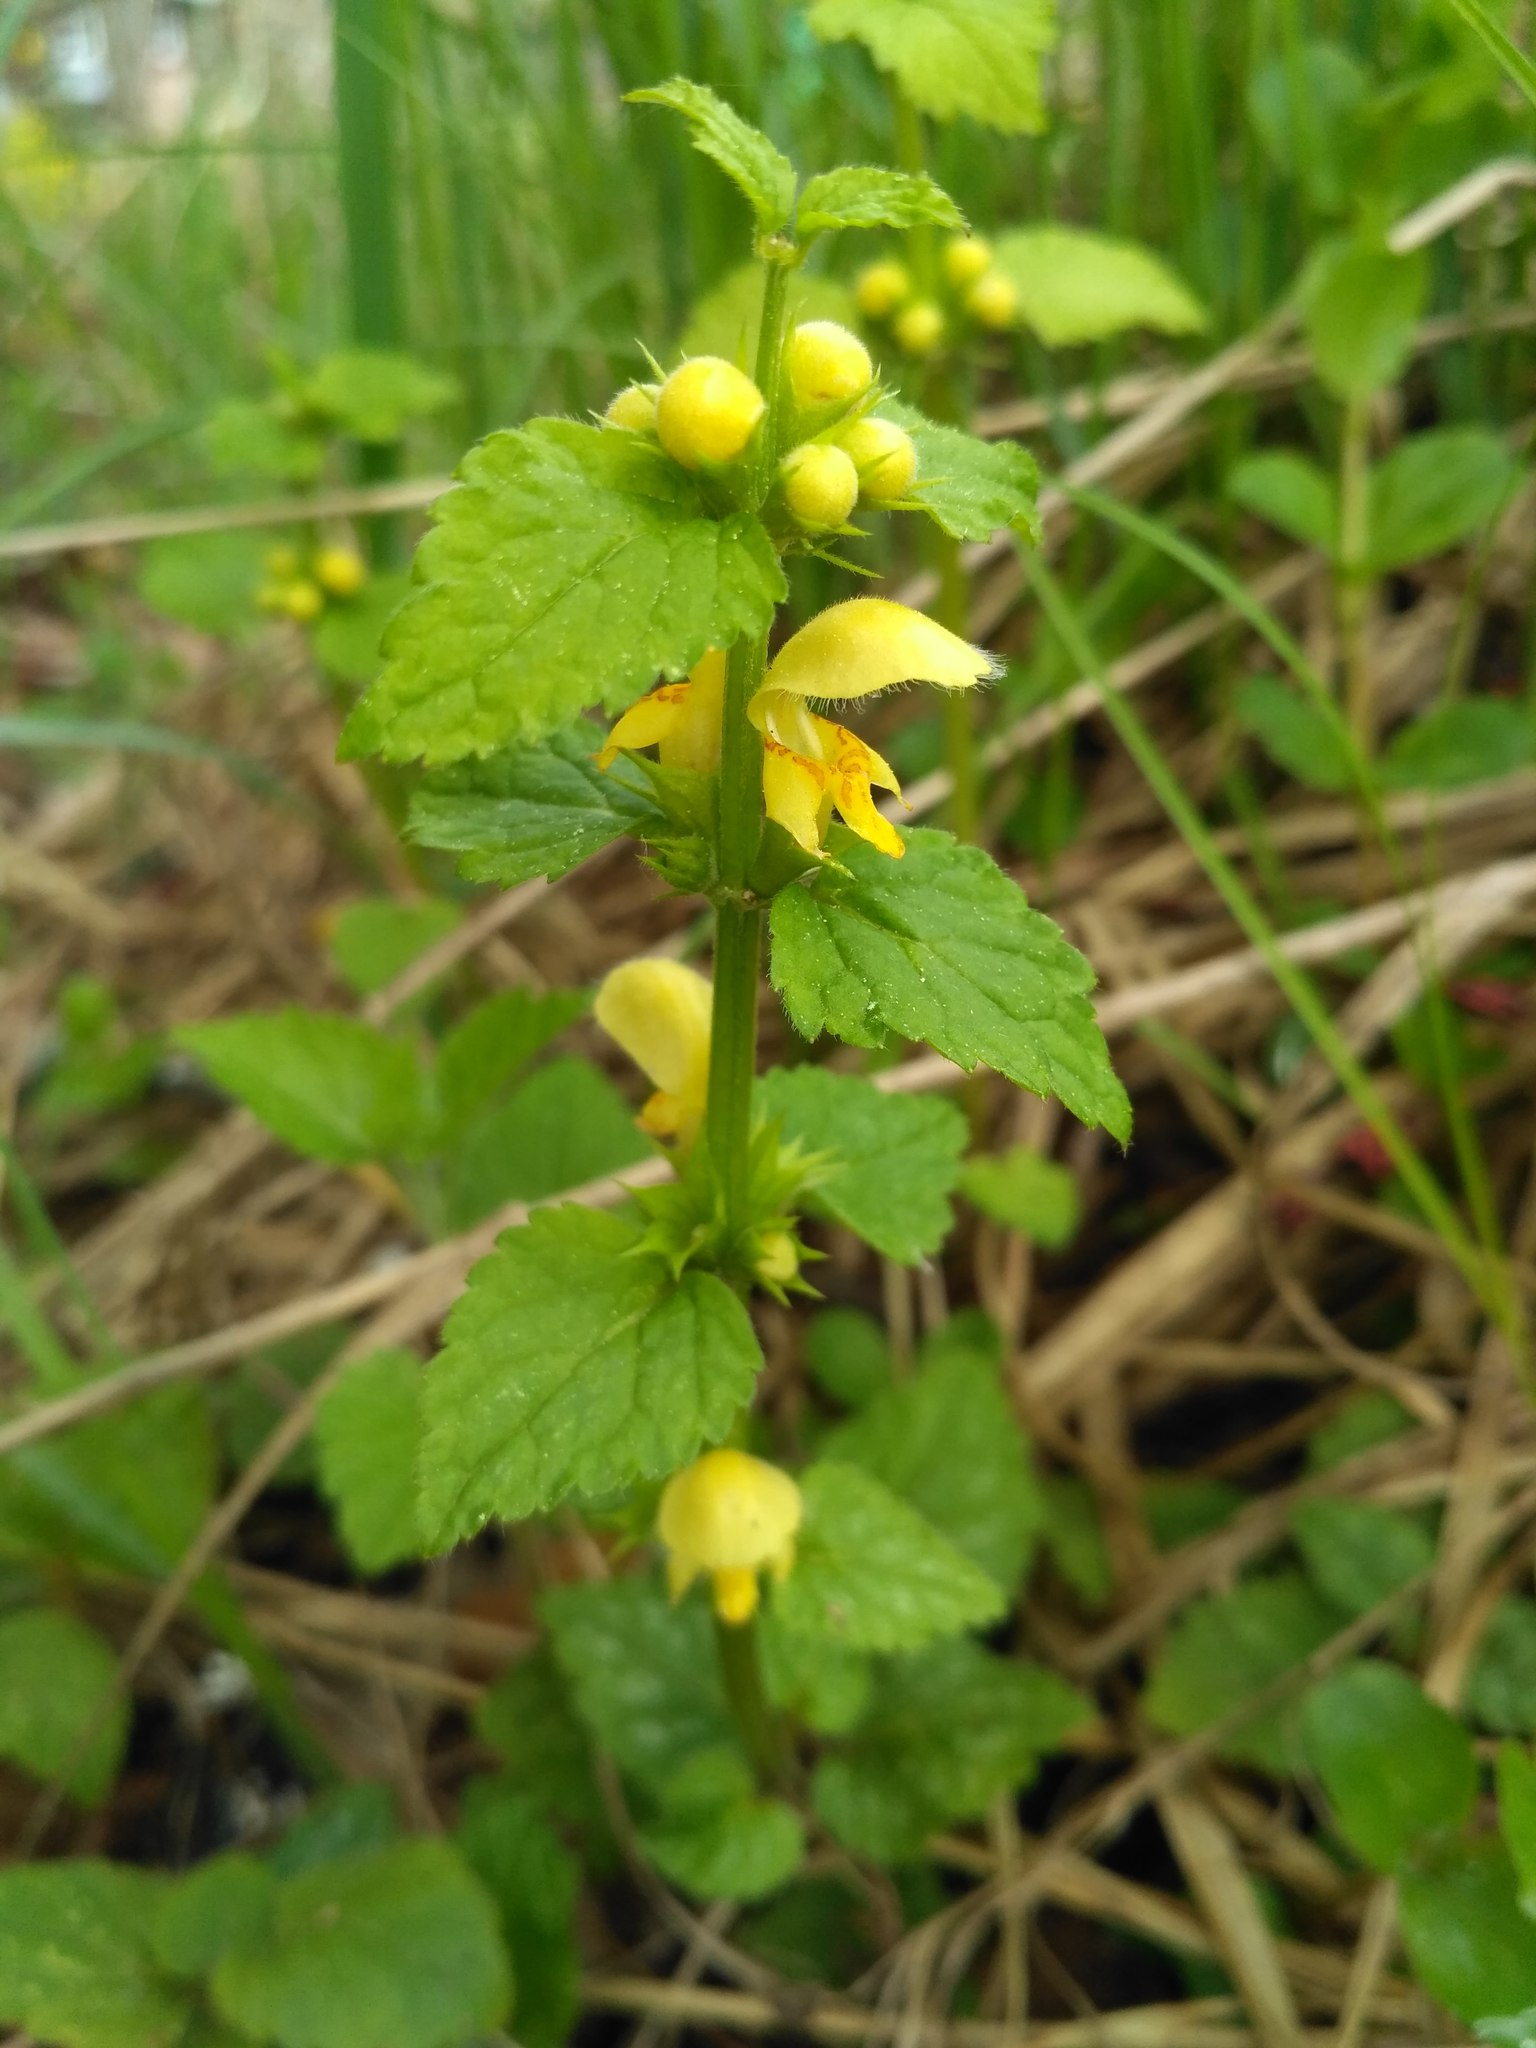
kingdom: Plantae
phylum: Tracheophyta
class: Magnoliopsida
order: Lamiales
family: Lamiaceae
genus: Lamium
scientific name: Lamium galeobdolon
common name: Yellow archangel
